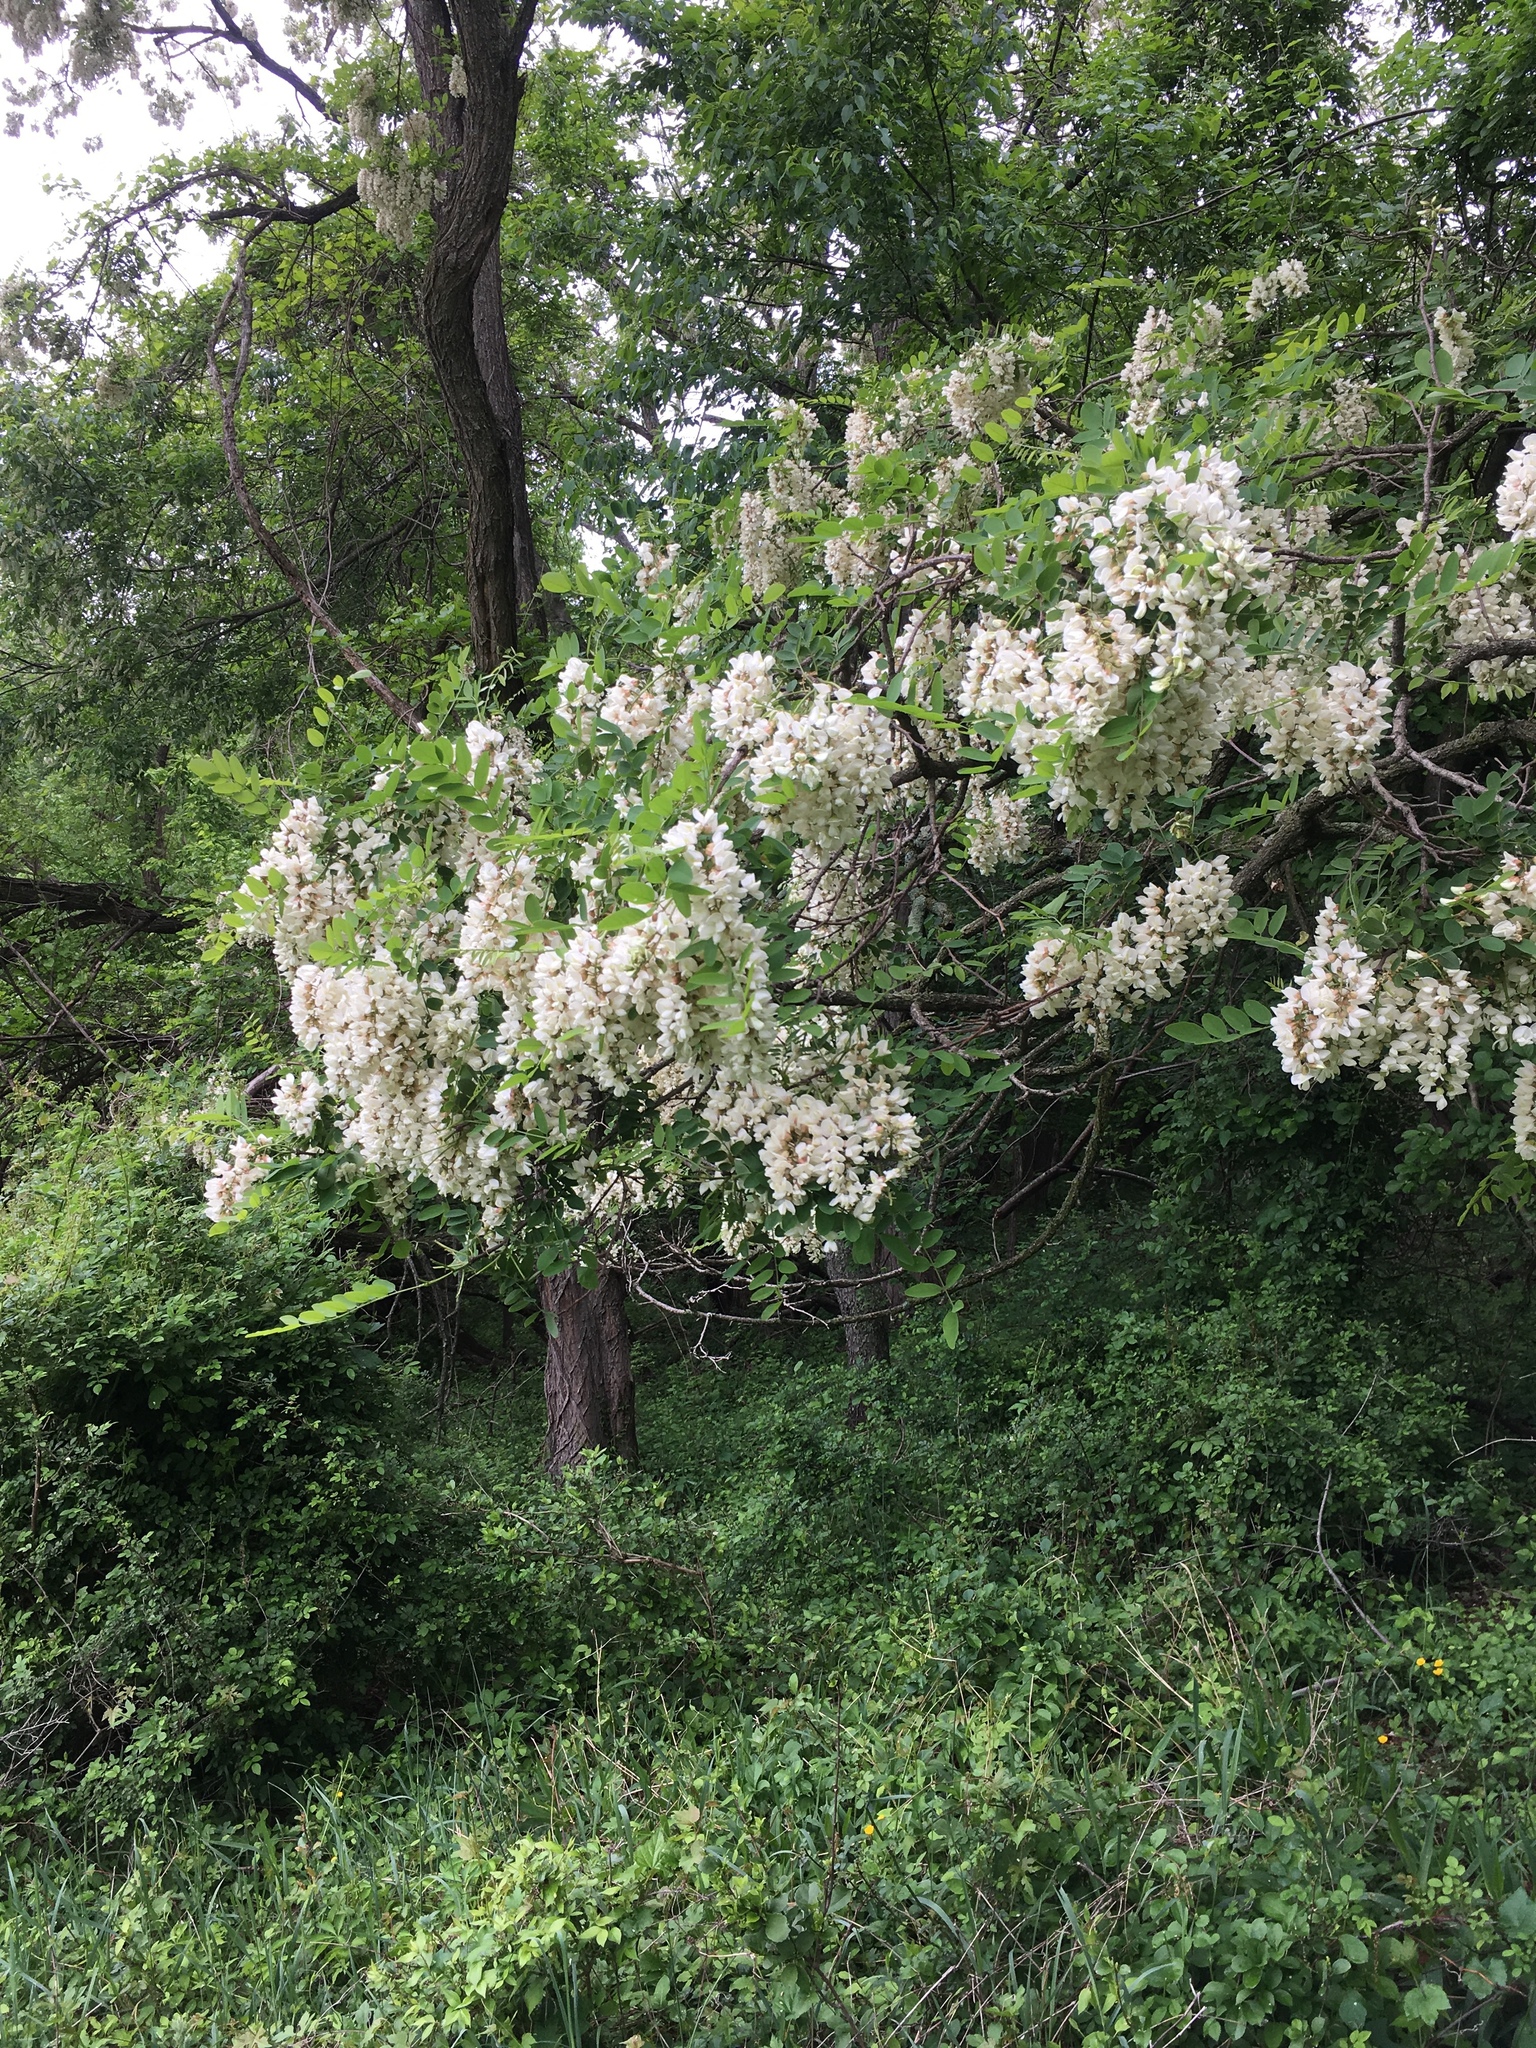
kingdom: Plantae
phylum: Tracheophyta
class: Magnoliopsida
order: Fabales
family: Fabaceae
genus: Robinia
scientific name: Robinia pseudoacacia
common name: Black locust
